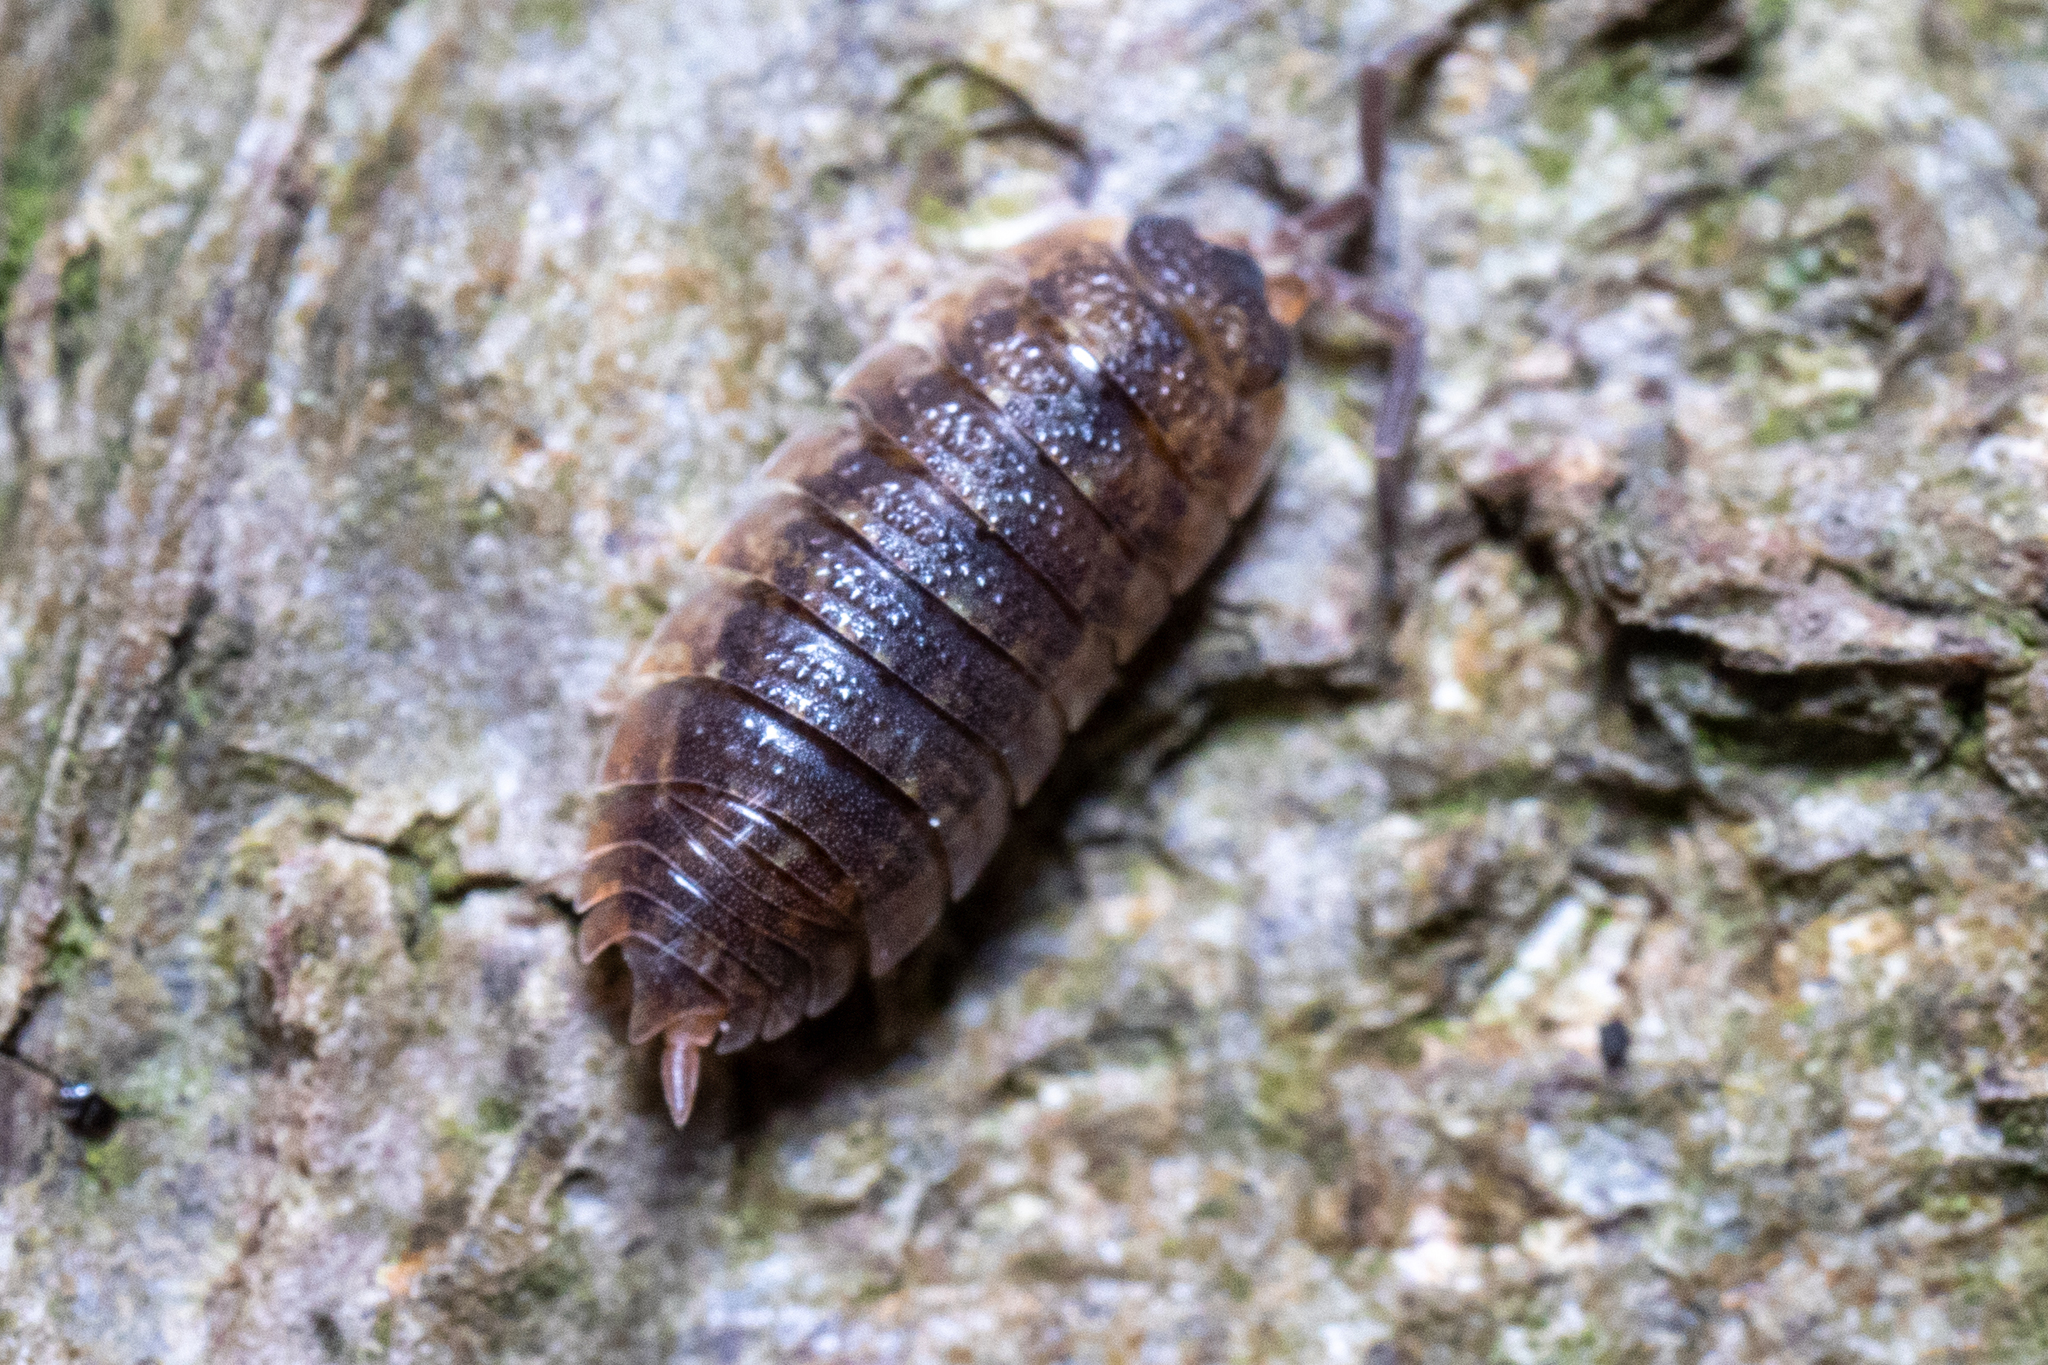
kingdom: Animalia
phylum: Arthropoda
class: Malacostraca
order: Isopoda
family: Porcellionidae
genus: Porcellio
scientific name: Porcellio scaber
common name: Common rough woodlouse
